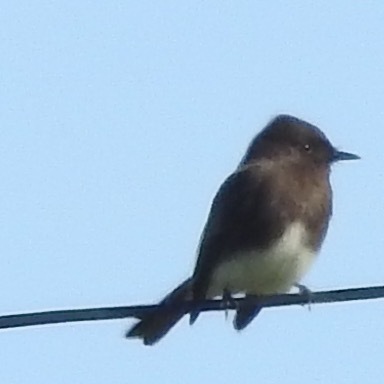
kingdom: Animalia
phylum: Chordata
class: Aves
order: Passeriformes
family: Tyrannidae
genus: Sayornis
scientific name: Sayornis nigricans
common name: Black phoebe
